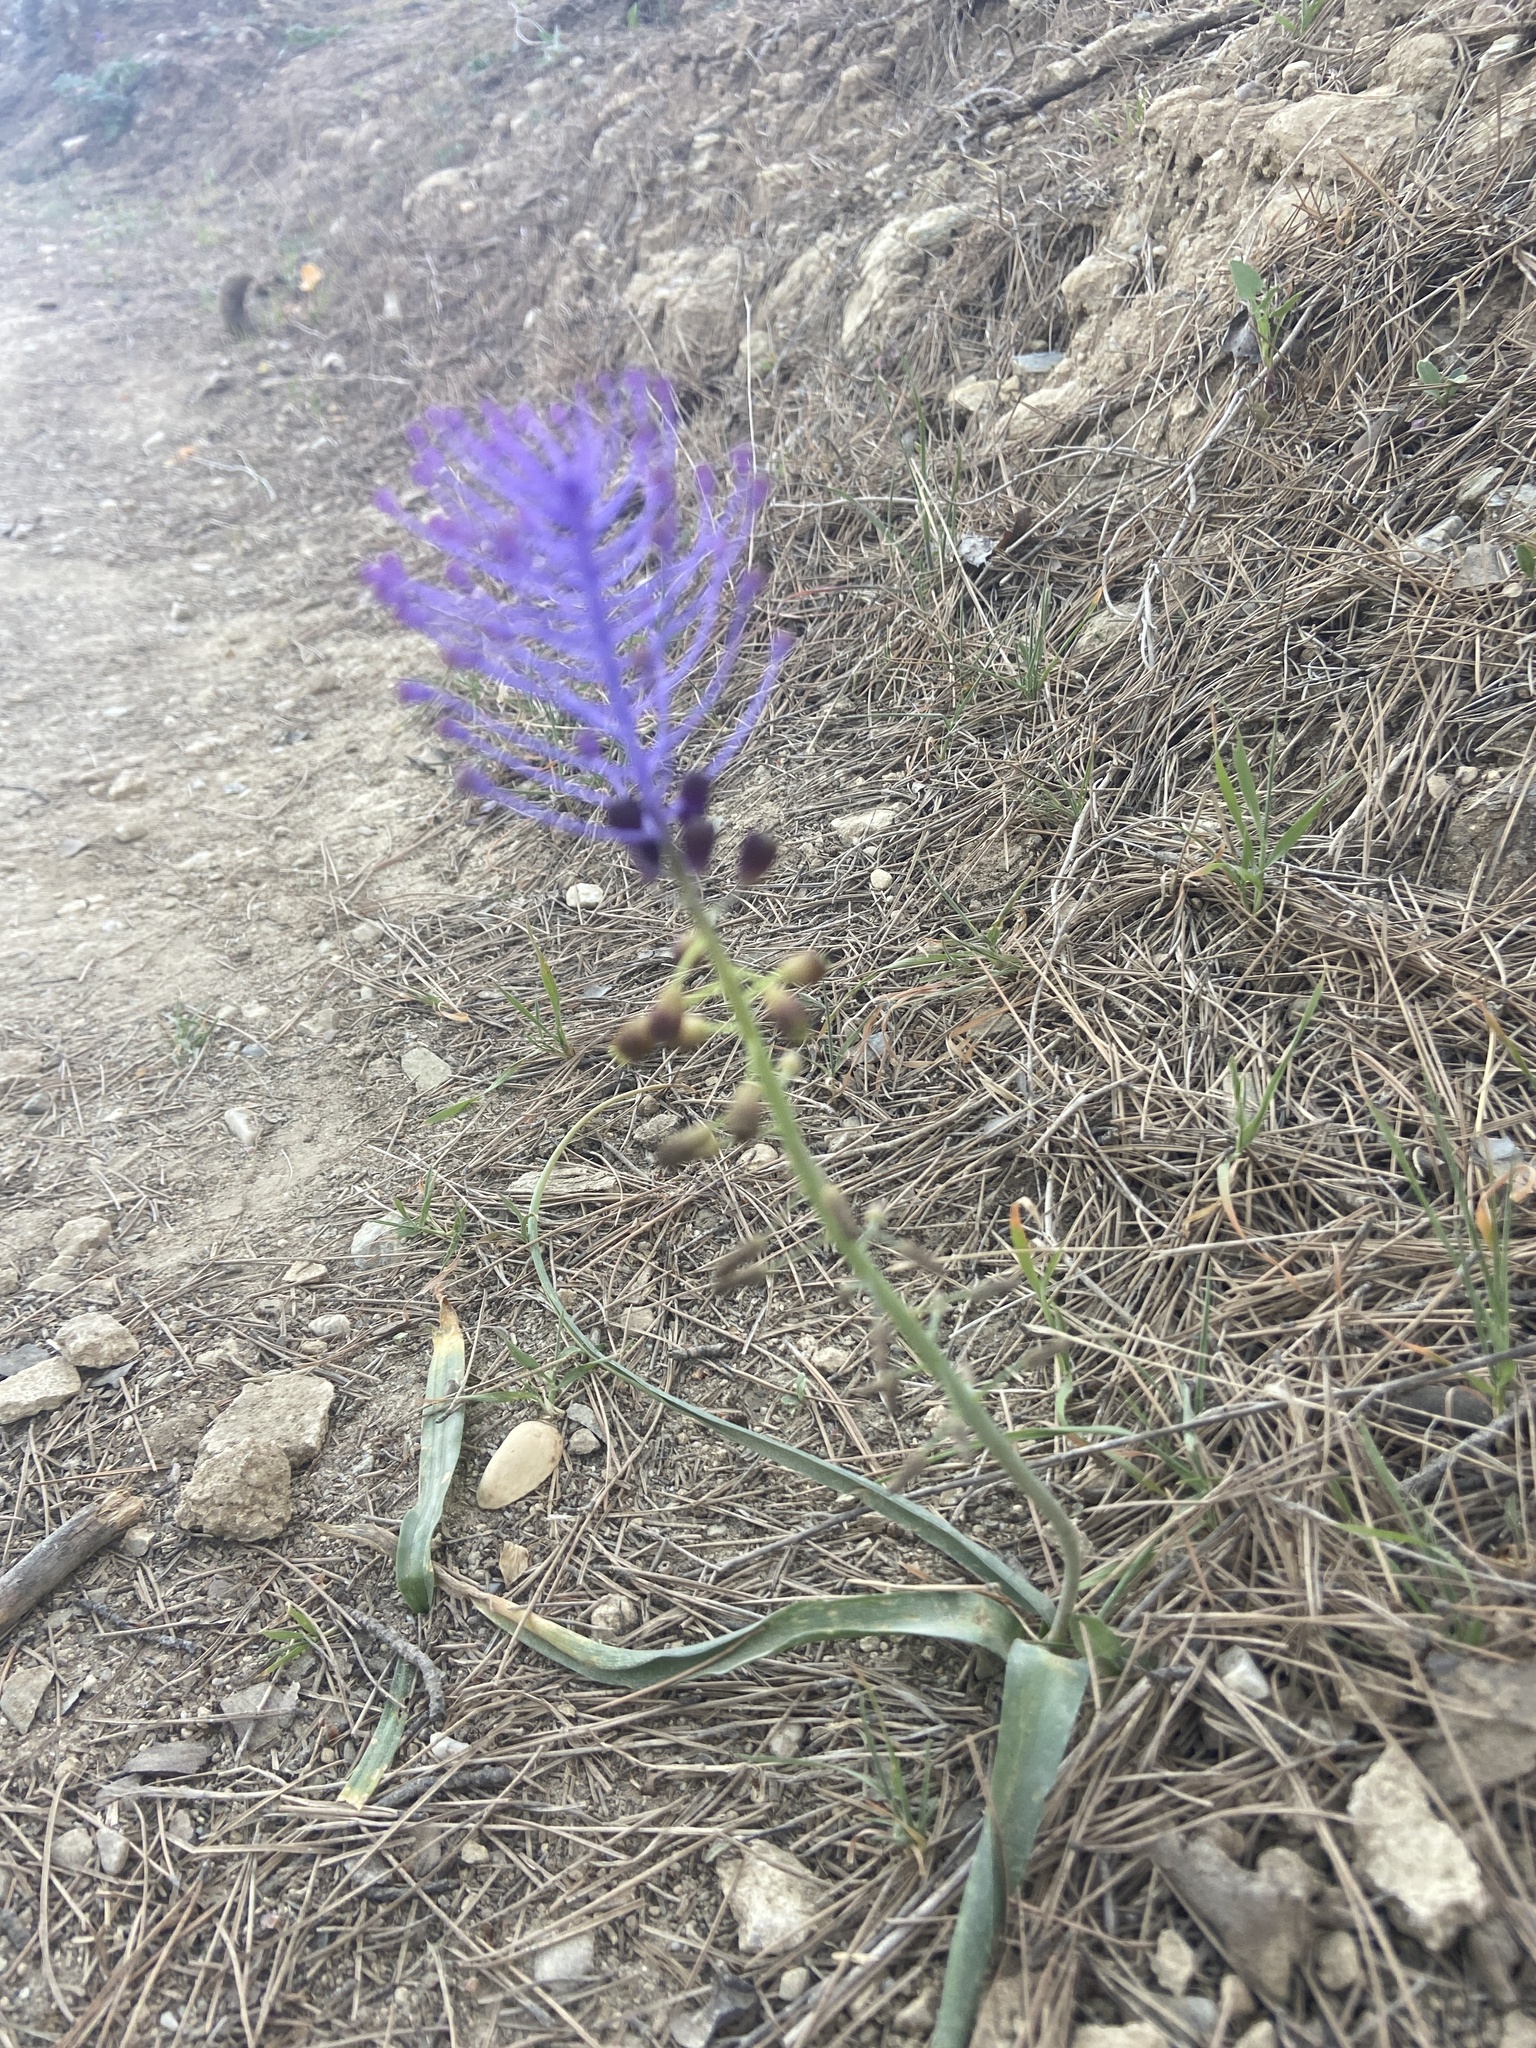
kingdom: Plantae
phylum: Tracheophyta
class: Liliopsida
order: Asparagales
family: Asparagaceae
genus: Muscari
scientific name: Muscari comosum
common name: Tassel hyacinth
